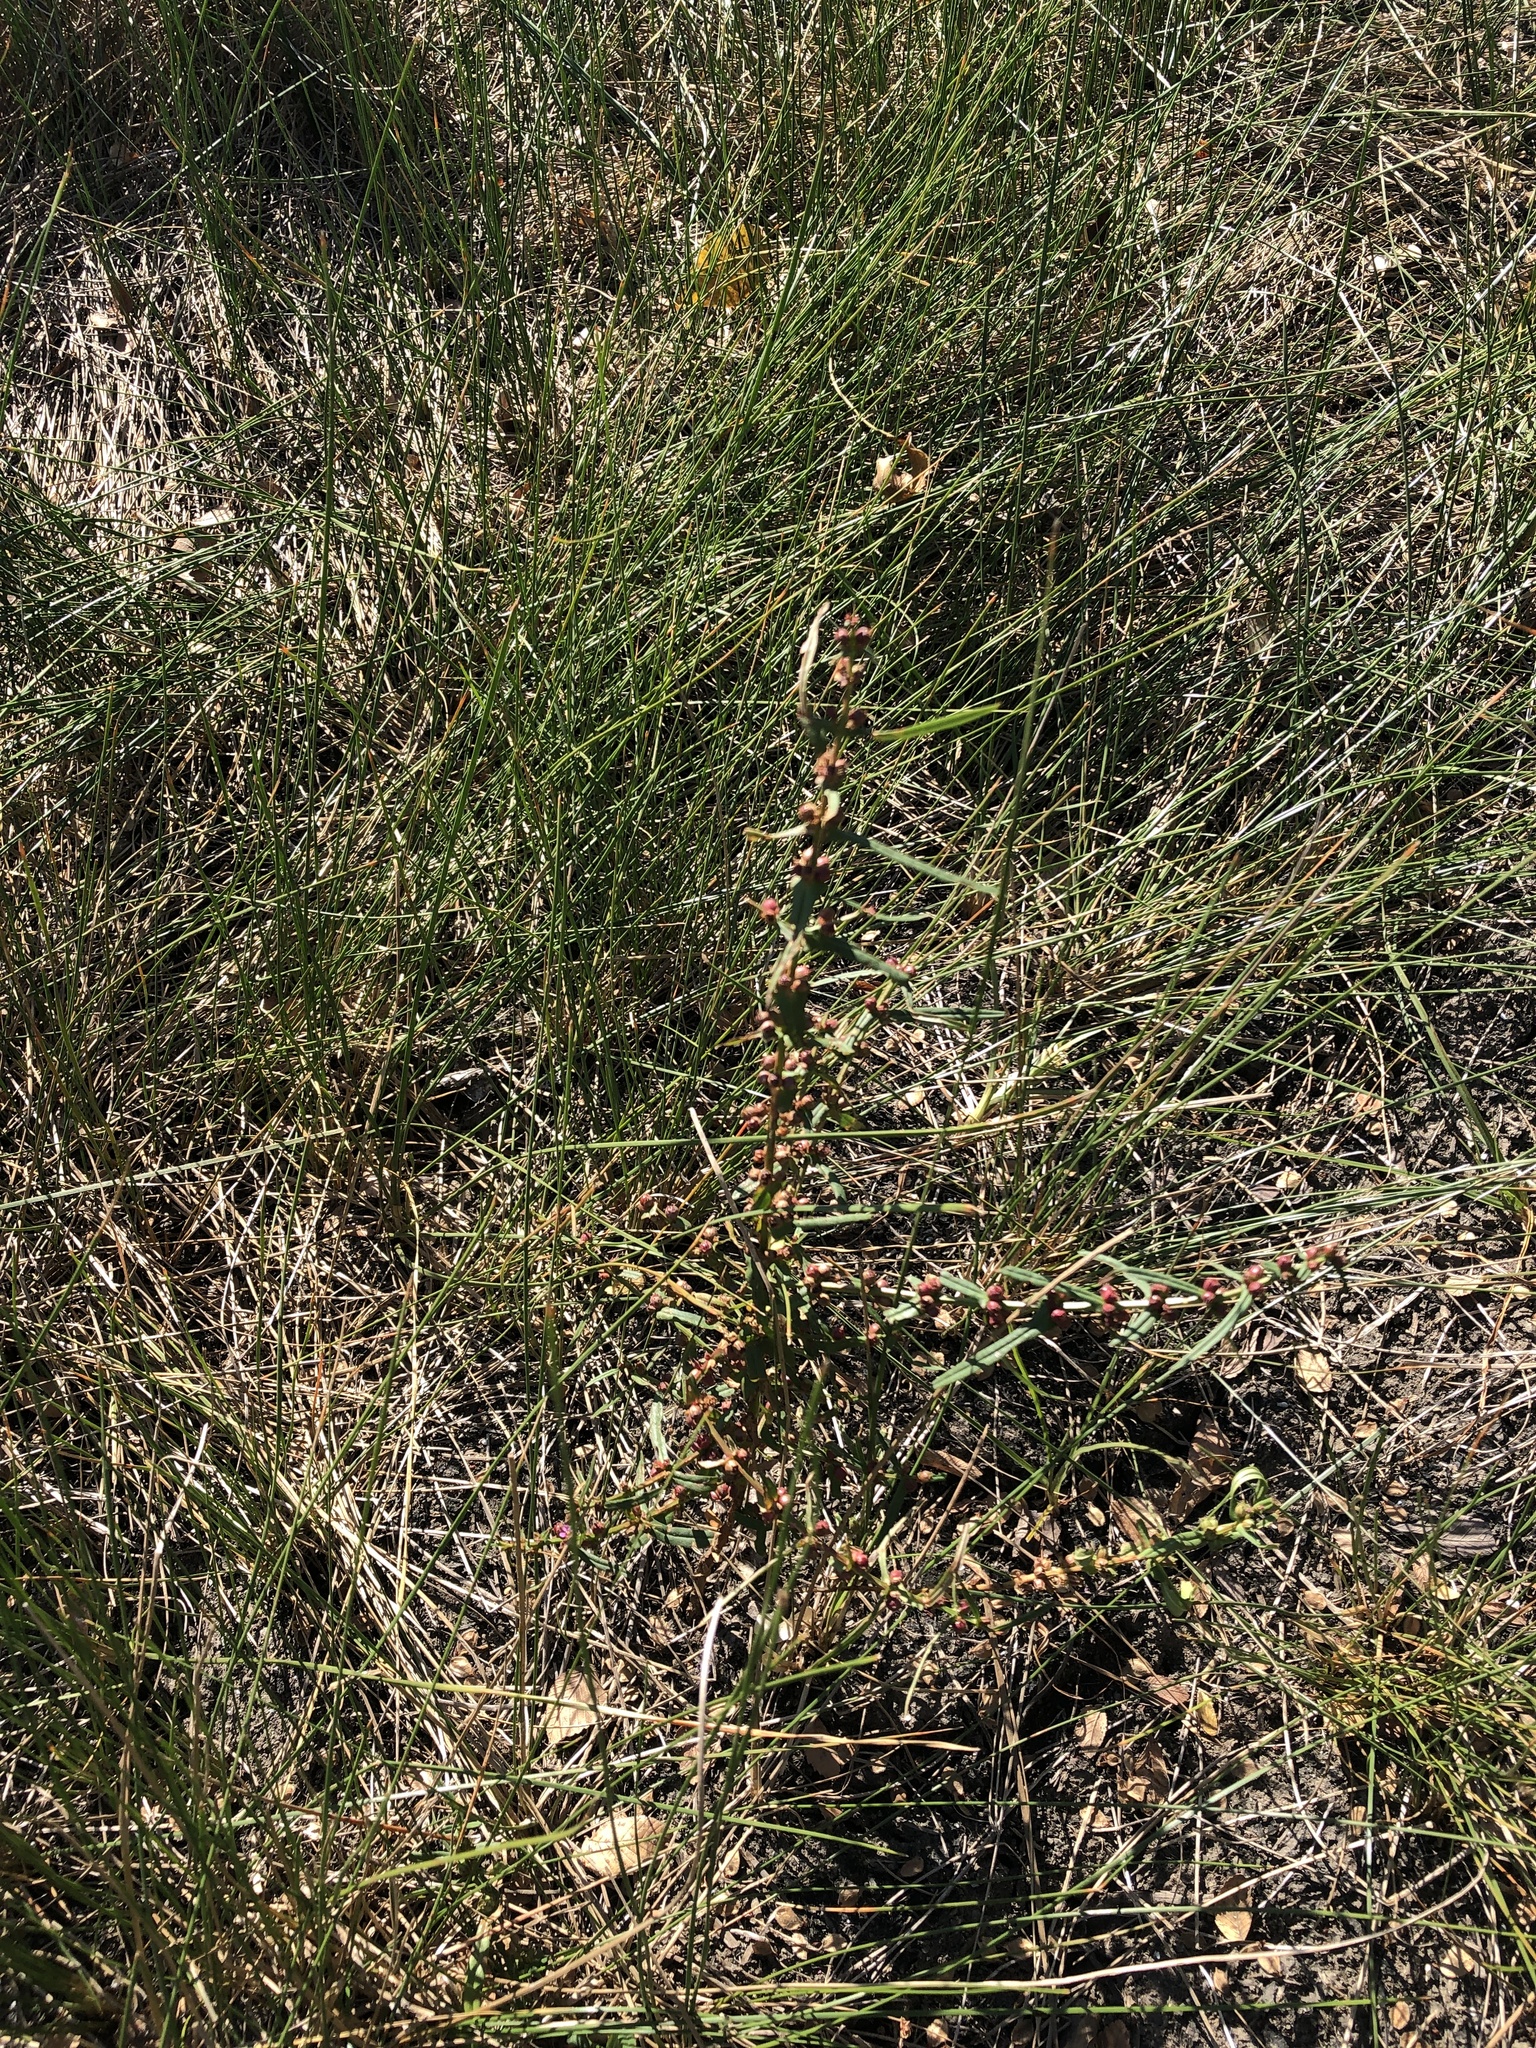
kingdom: Plantae
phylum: Tracheophyta
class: Magnoliopsida
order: Myrtales
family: Lythraceae
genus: Ammannia
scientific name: Ammannia coccinea
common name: Valley redstem
